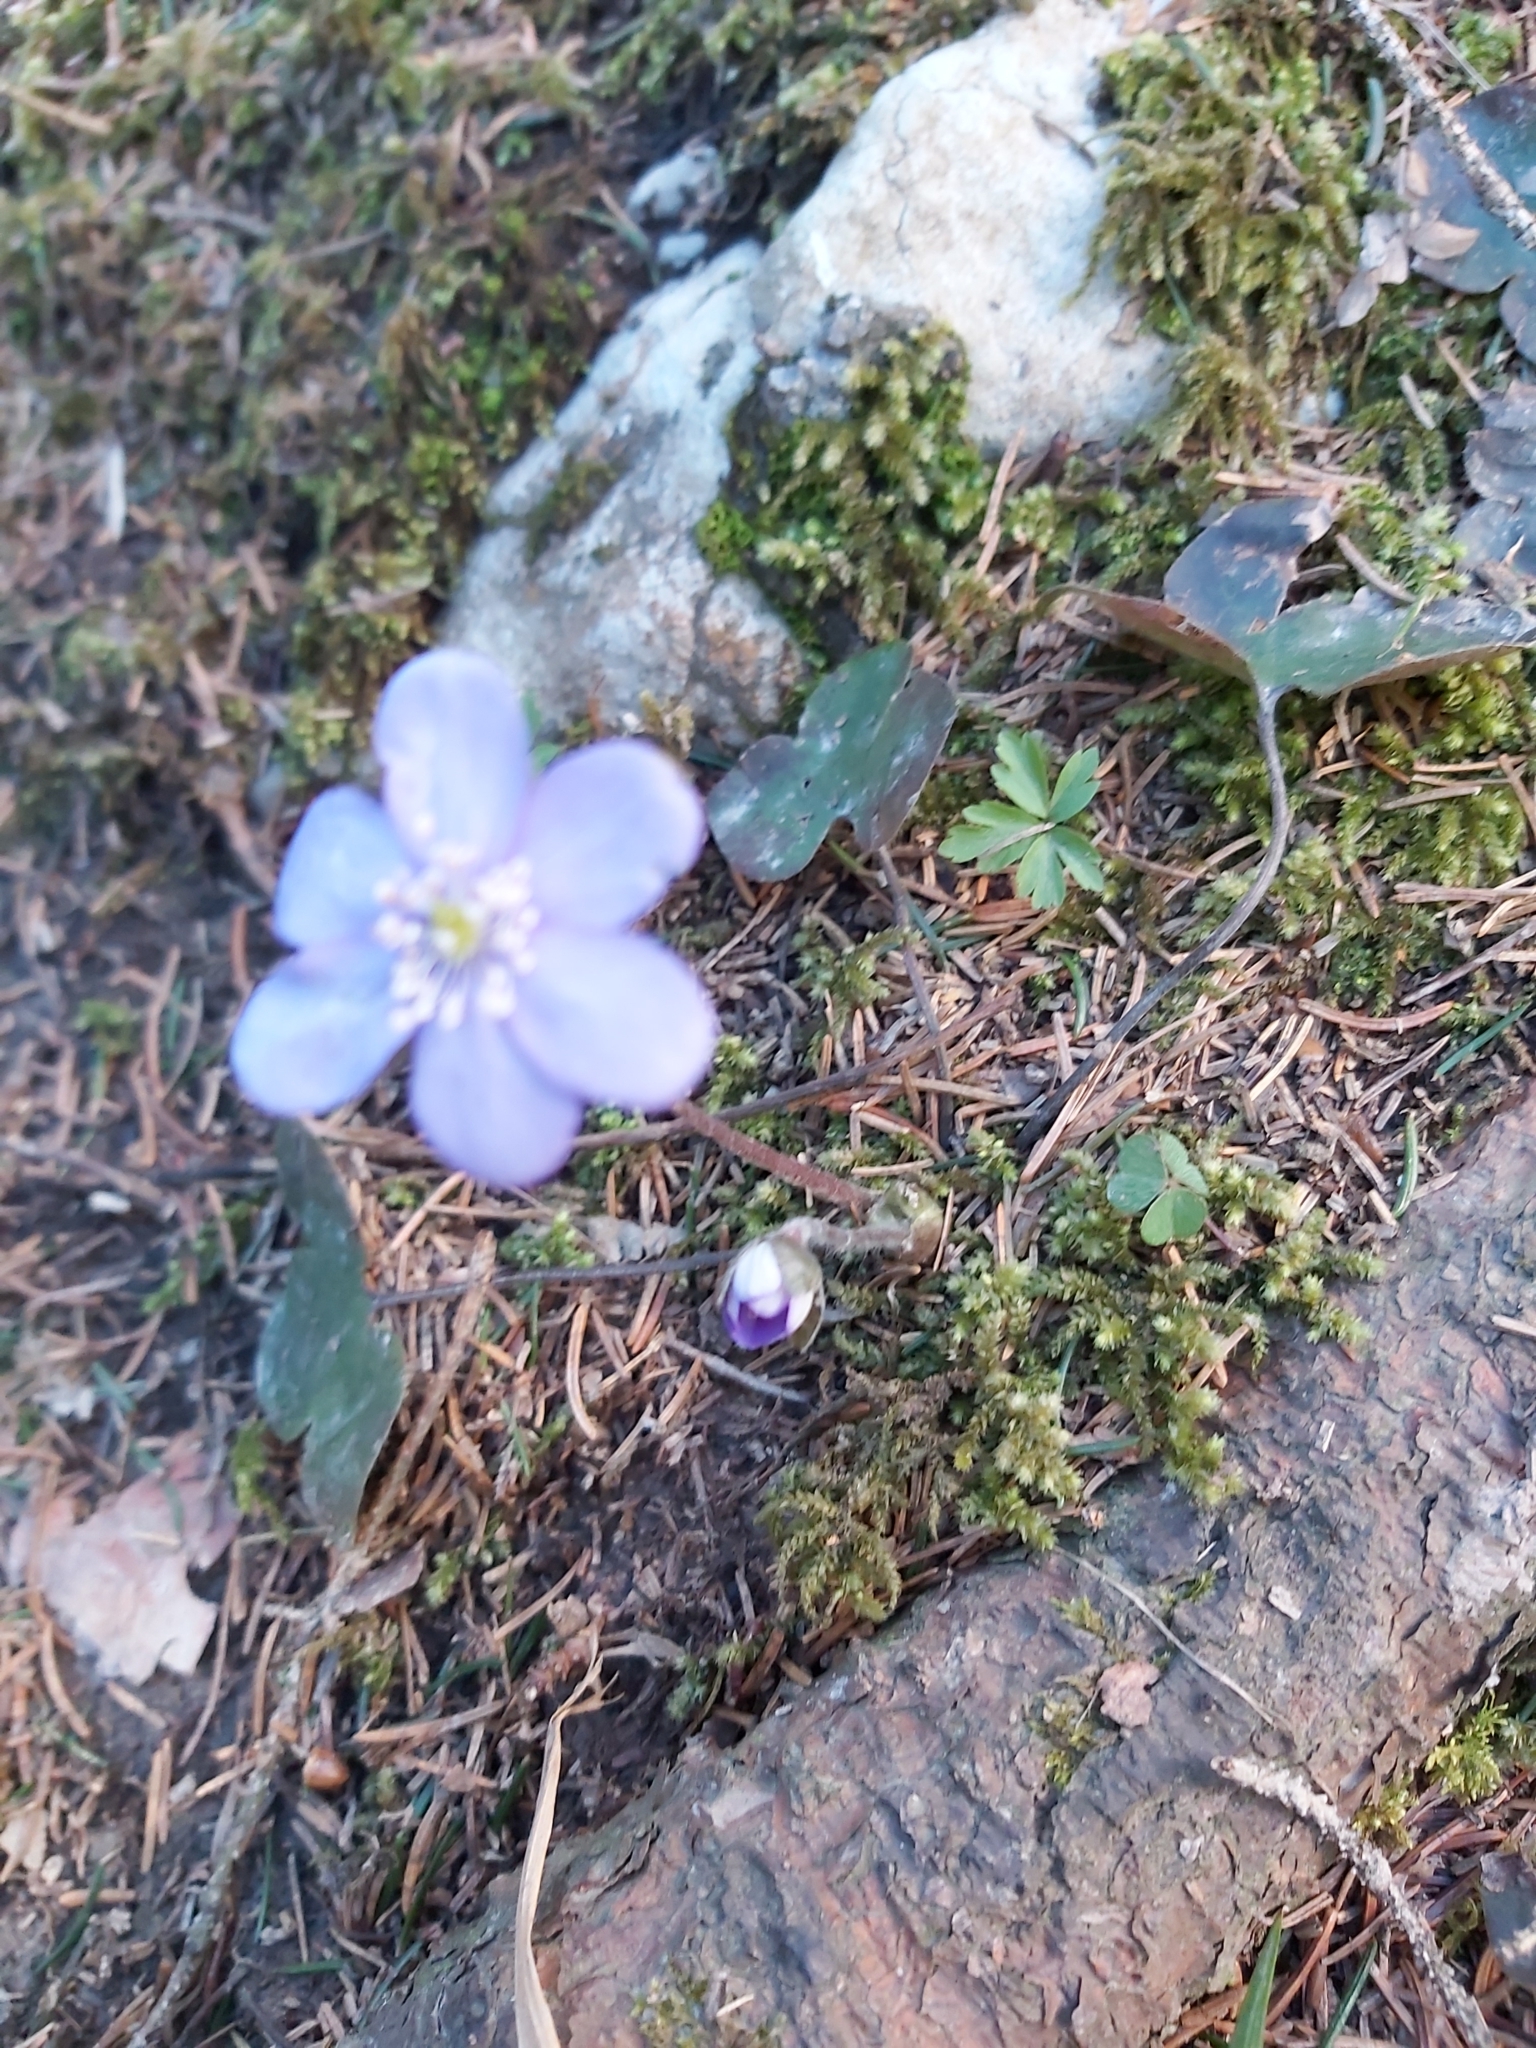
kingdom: Plantae
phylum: Tracheophyta
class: Magnoliopsida
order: Ranunculales
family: Ranunculaceae
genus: Hepatica
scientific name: Hepatica nobilis
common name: Liverleaf
